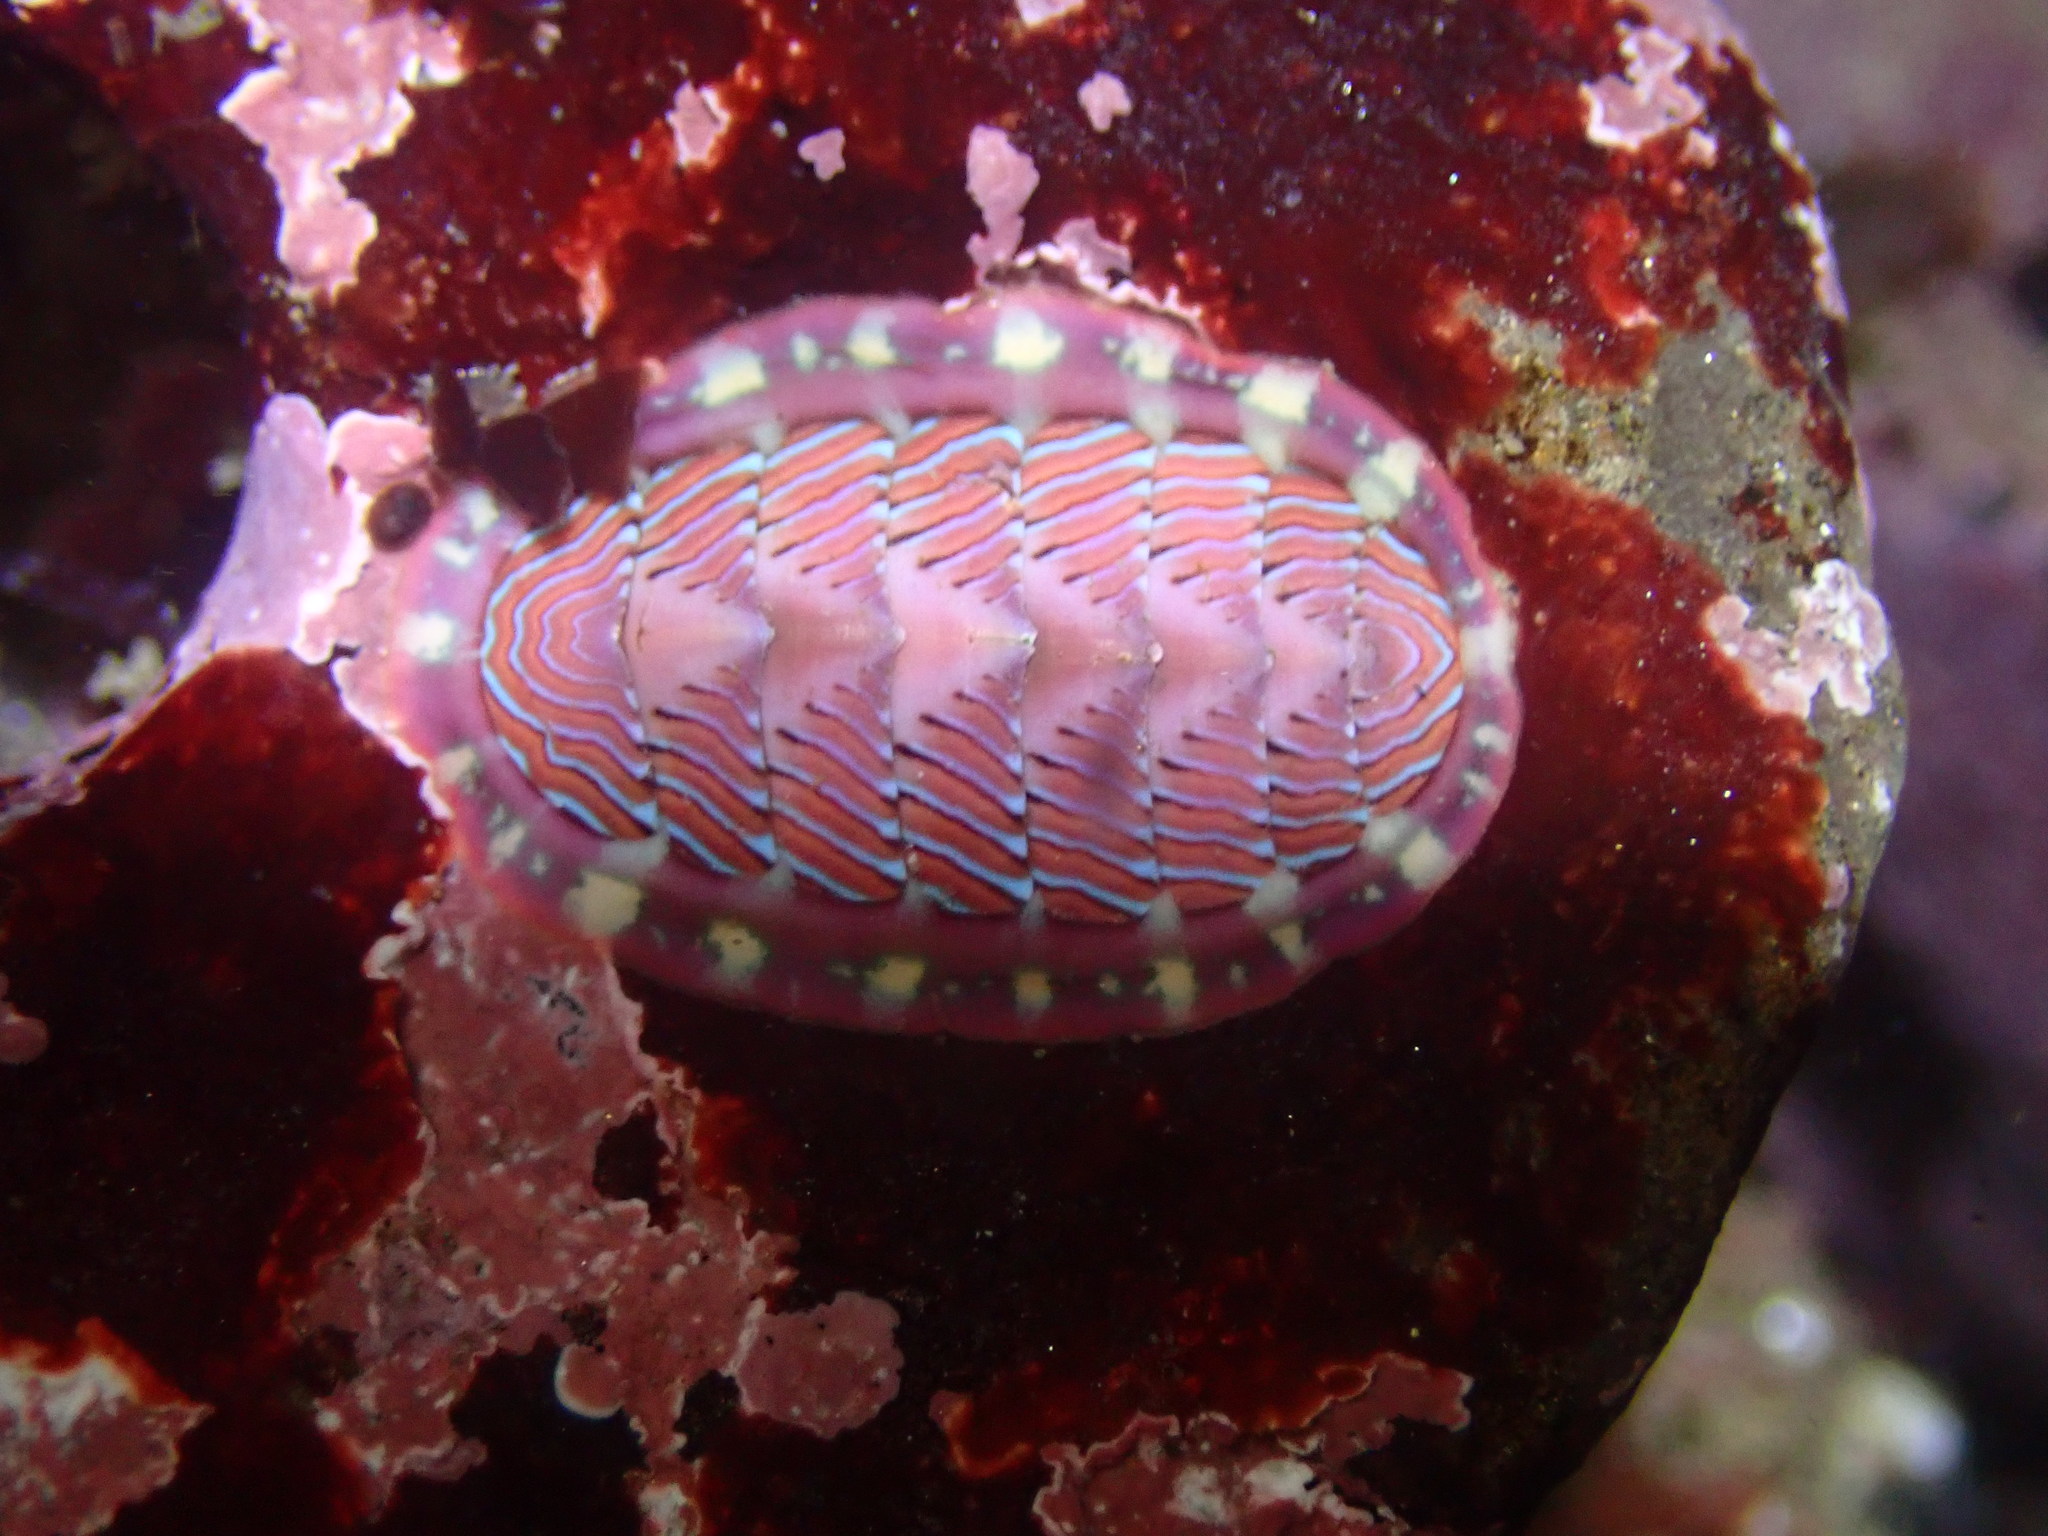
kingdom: Animalia
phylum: Mollusca
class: Polyplacophora
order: Chitonida
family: Tonicellidae
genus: Tonicella
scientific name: Tonicella lineata
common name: Lined chiton
